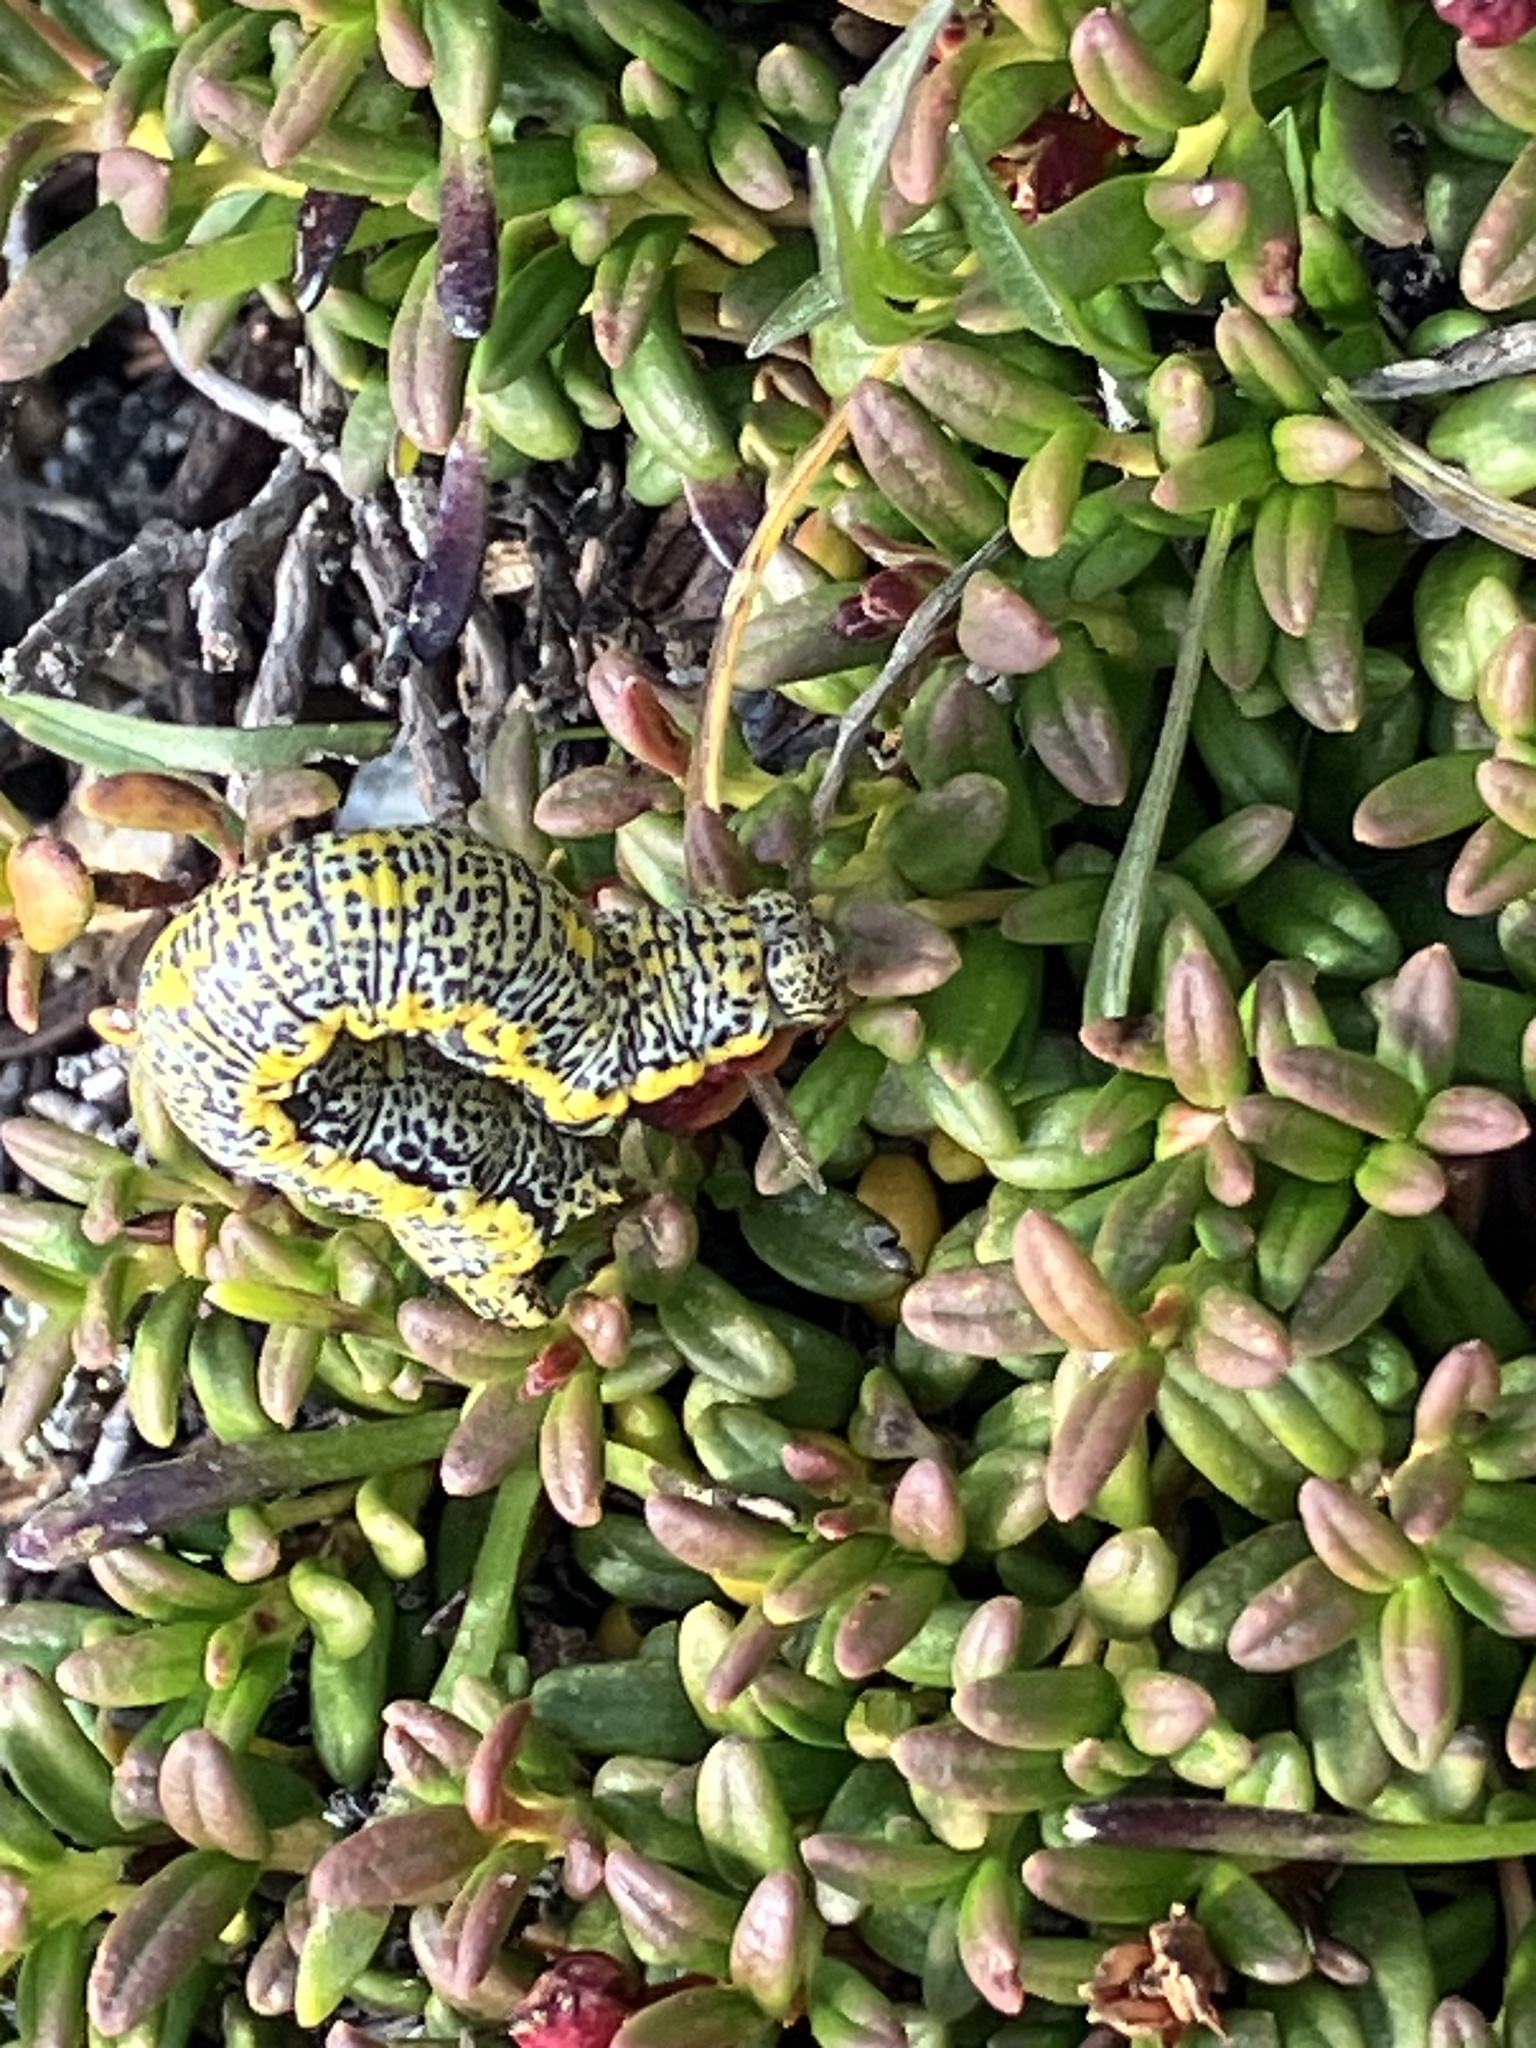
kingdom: Animalia
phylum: Arthropoda
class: Insecta
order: Lepidoptera
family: Geometridae
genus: Lycia
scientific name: Lycia alpina
